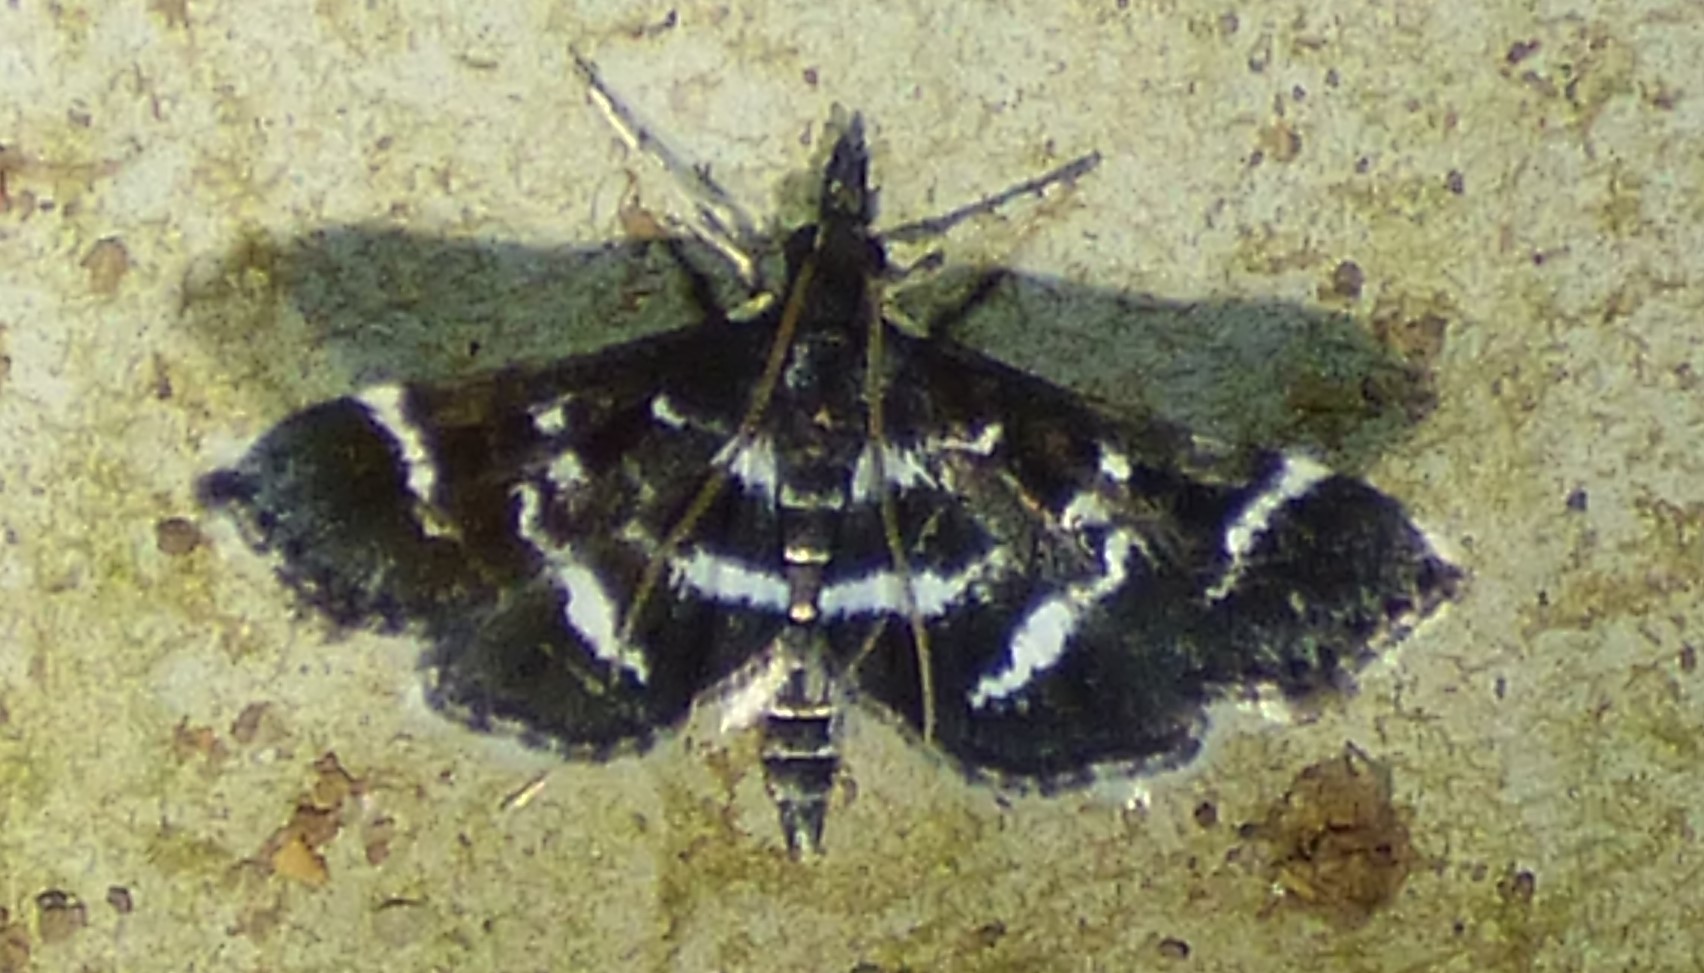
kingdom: Animalia
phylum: Arthropoda
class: Insecta
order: Lepidoptera
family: Crambidae
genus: Diasemiodes
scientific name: Diasemiodes janassialis
